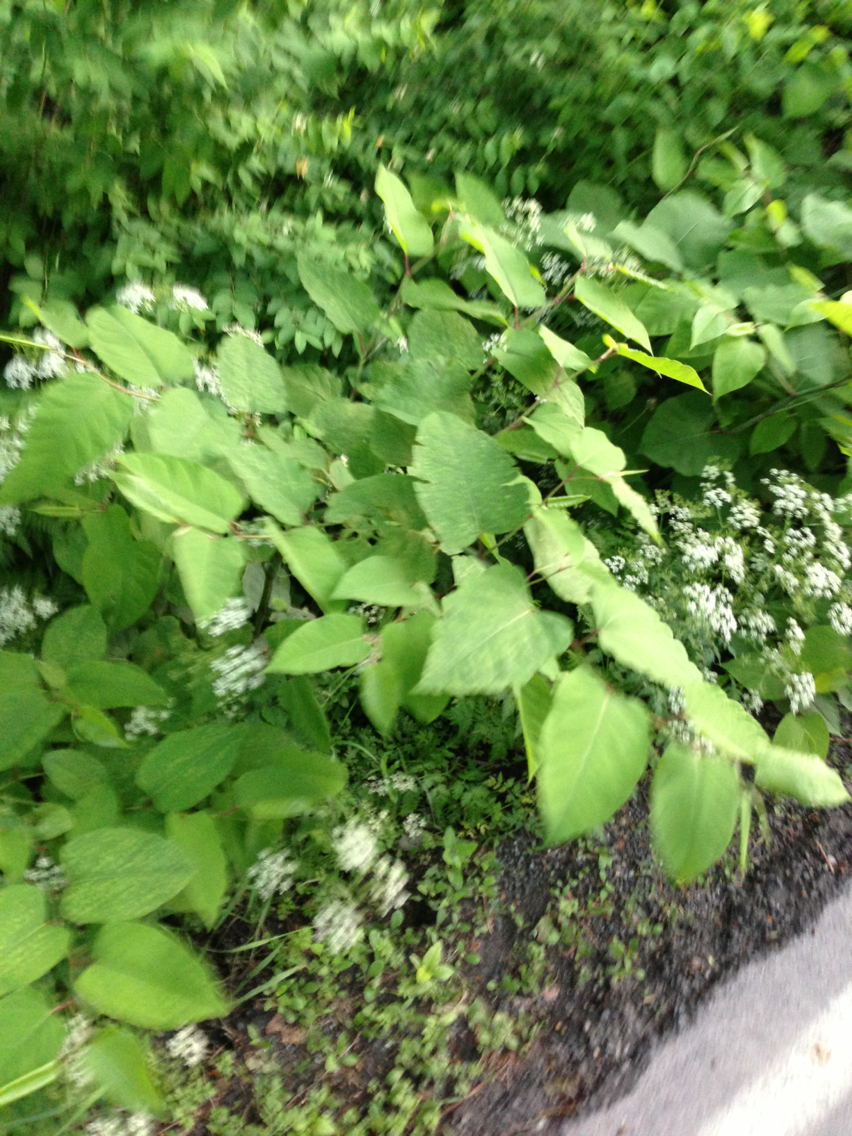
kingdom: Plantae
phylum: Tracheophyta
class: Magnoliopsida
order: Caryophyllales
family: Polygonaceae
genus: Reynoutria
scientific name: Reynoutria japonica
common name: Japanese knotweed
